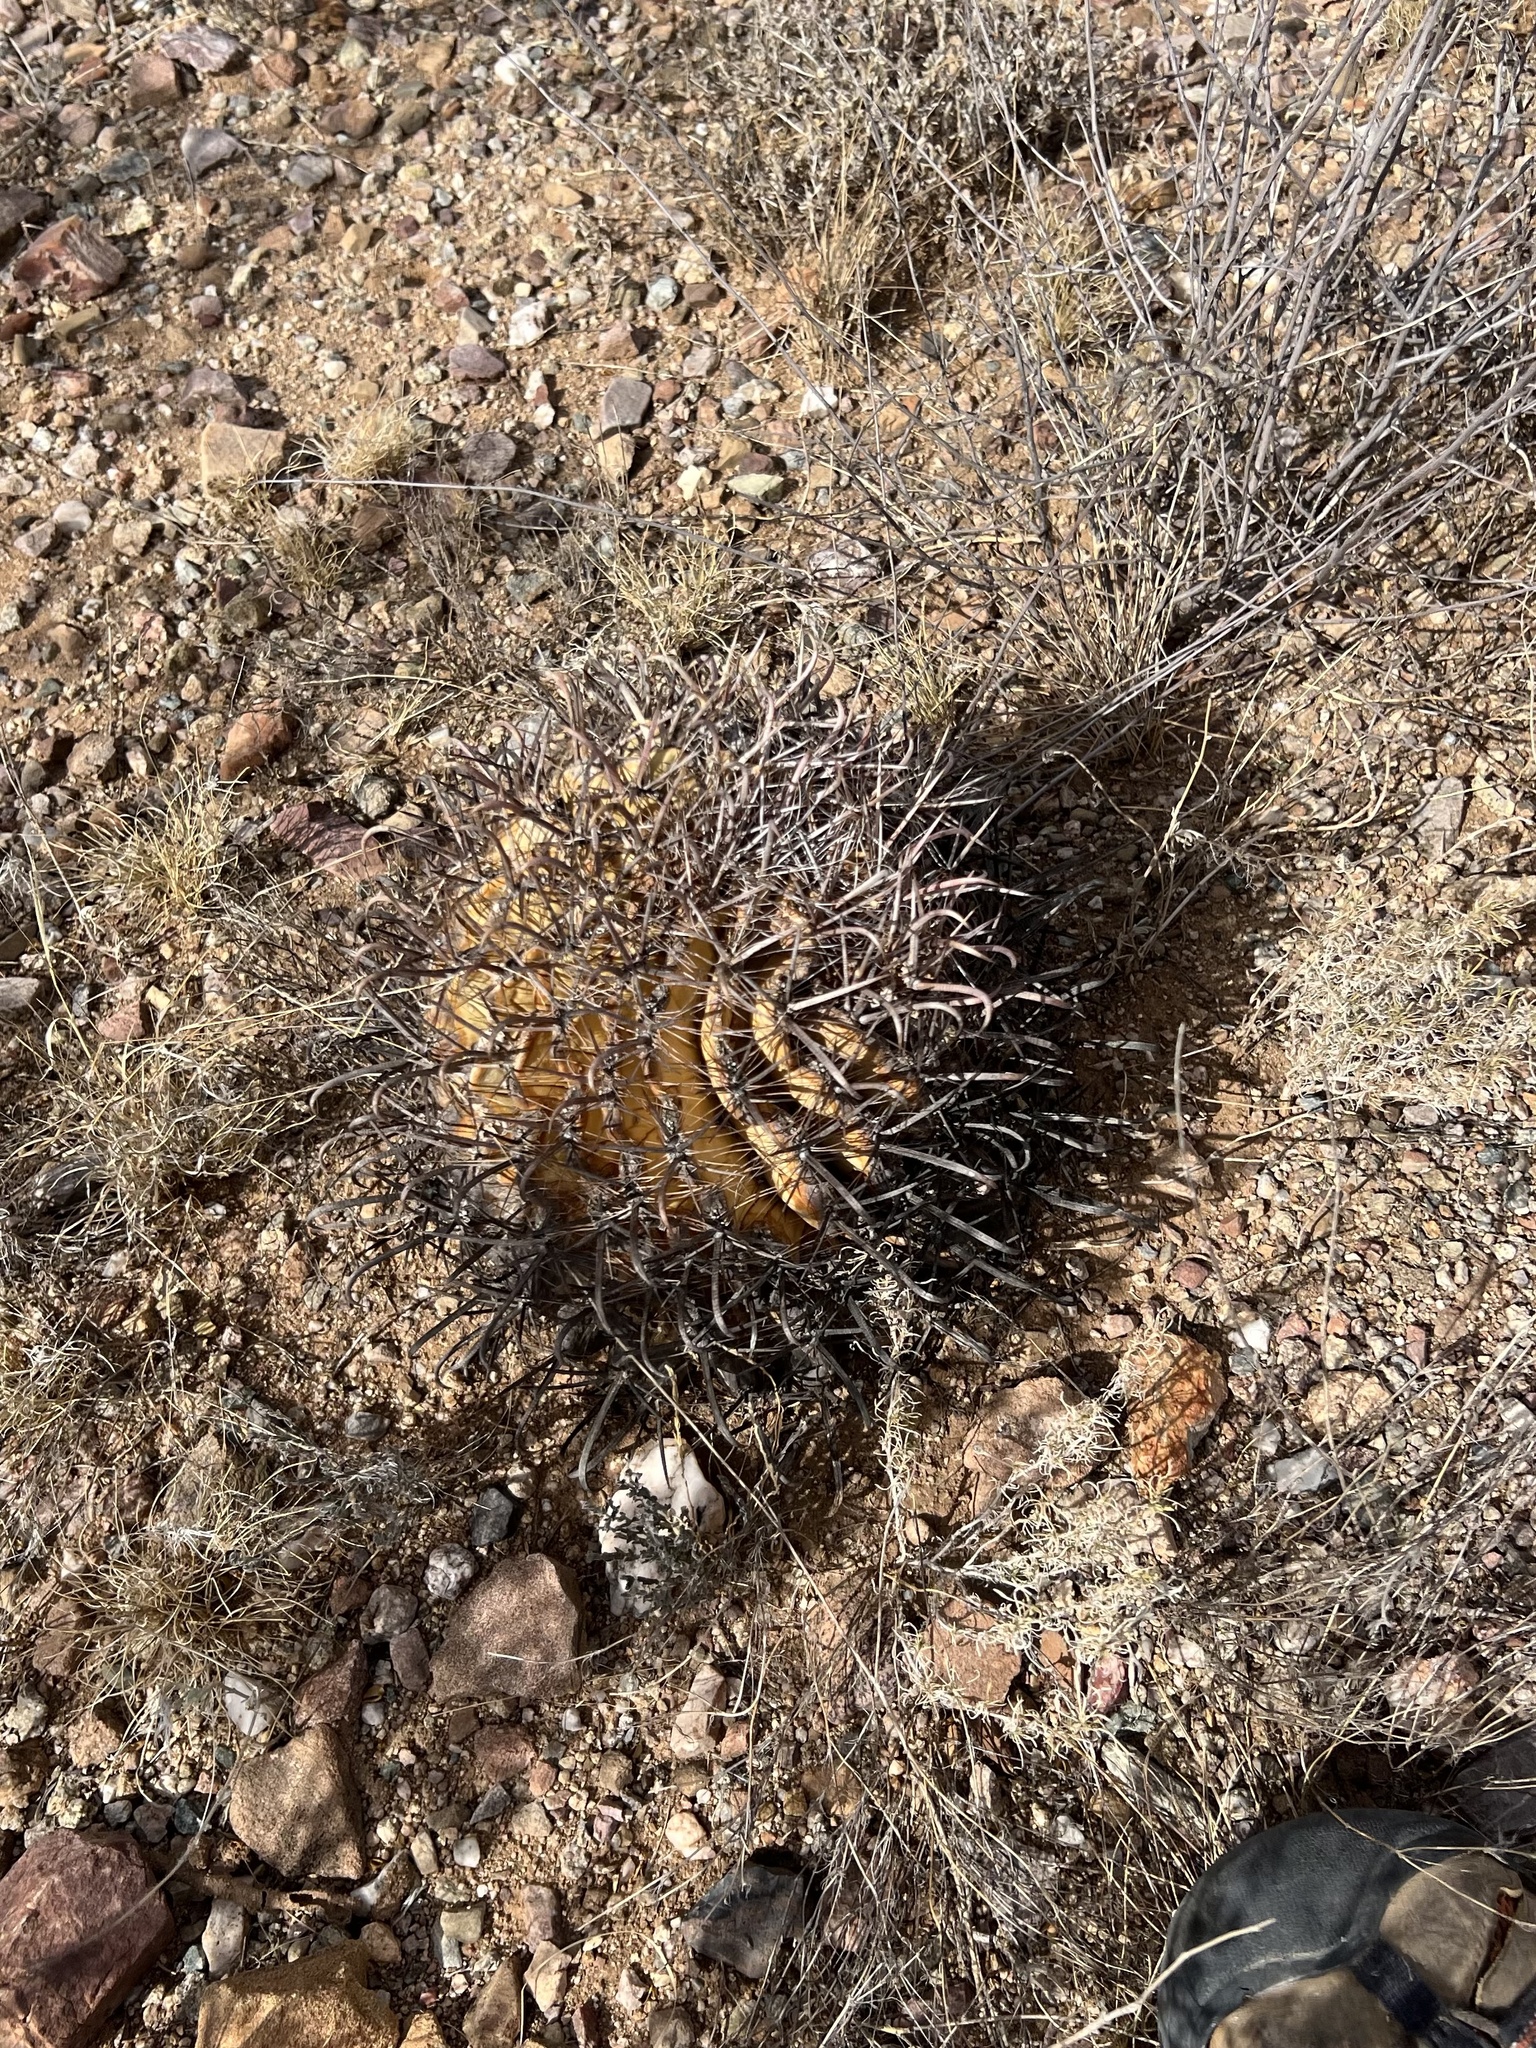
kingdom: Plantae
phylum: Tracheophyta
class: Magnoliopsida
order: Caryophyllales
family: Cactaceae
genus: Ferocactus
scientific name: Ferocactus wislizeni
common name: Candy barrel cactus
